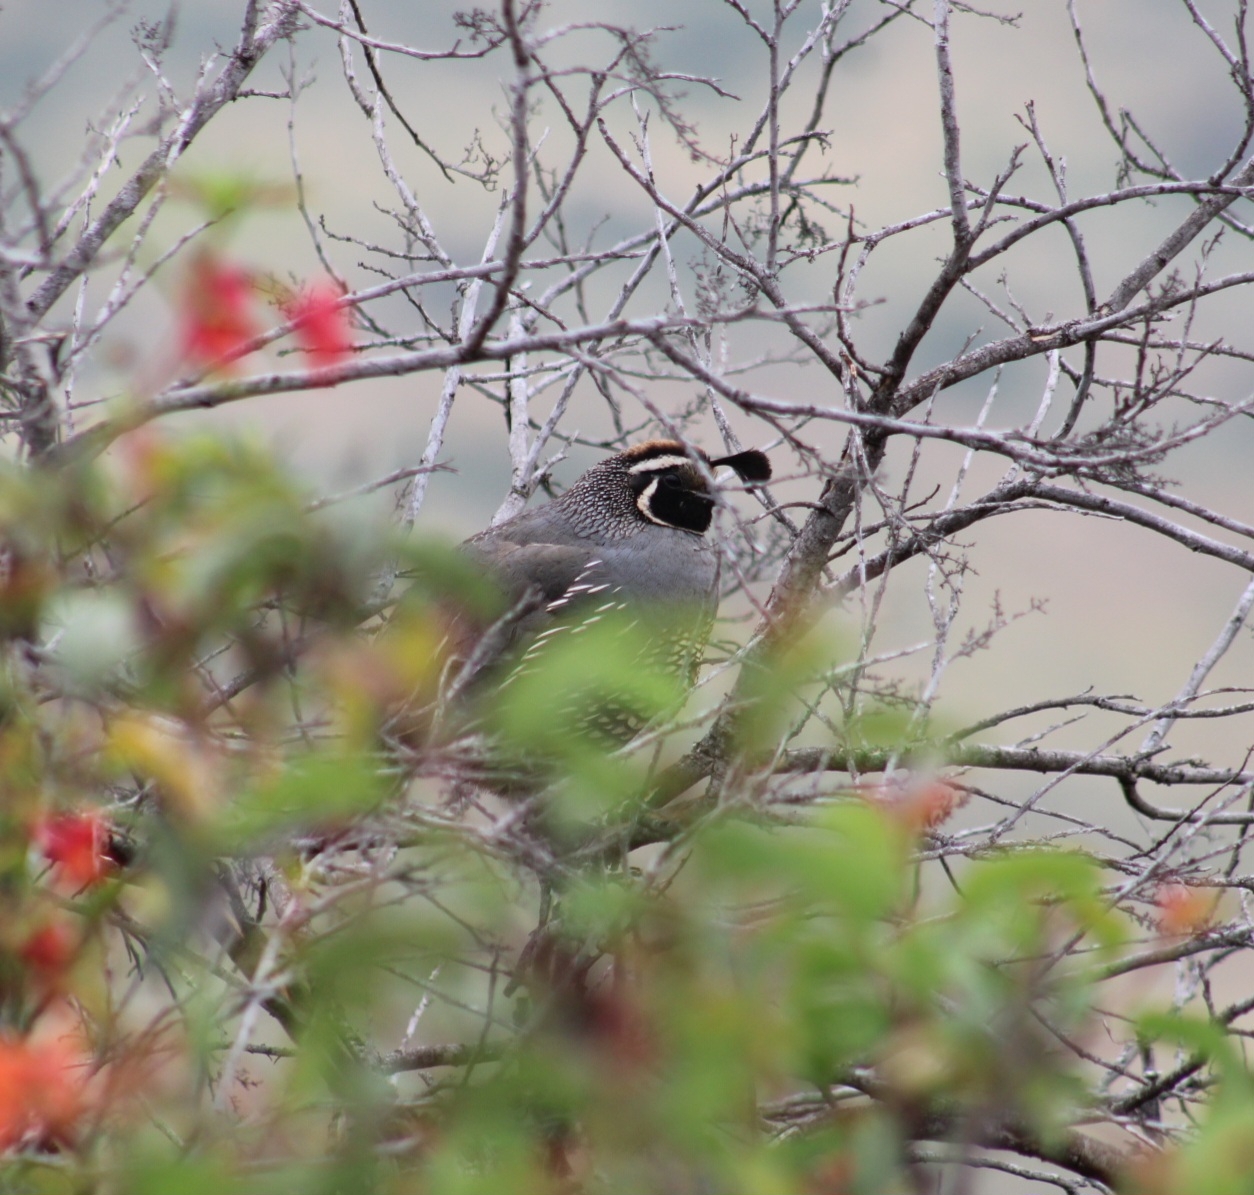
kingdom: Animalia
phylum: Chordata
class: Aves
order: Galliformes
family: Odontophoridae
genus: Callipepla
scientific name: Callipepla californica
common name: California quail
